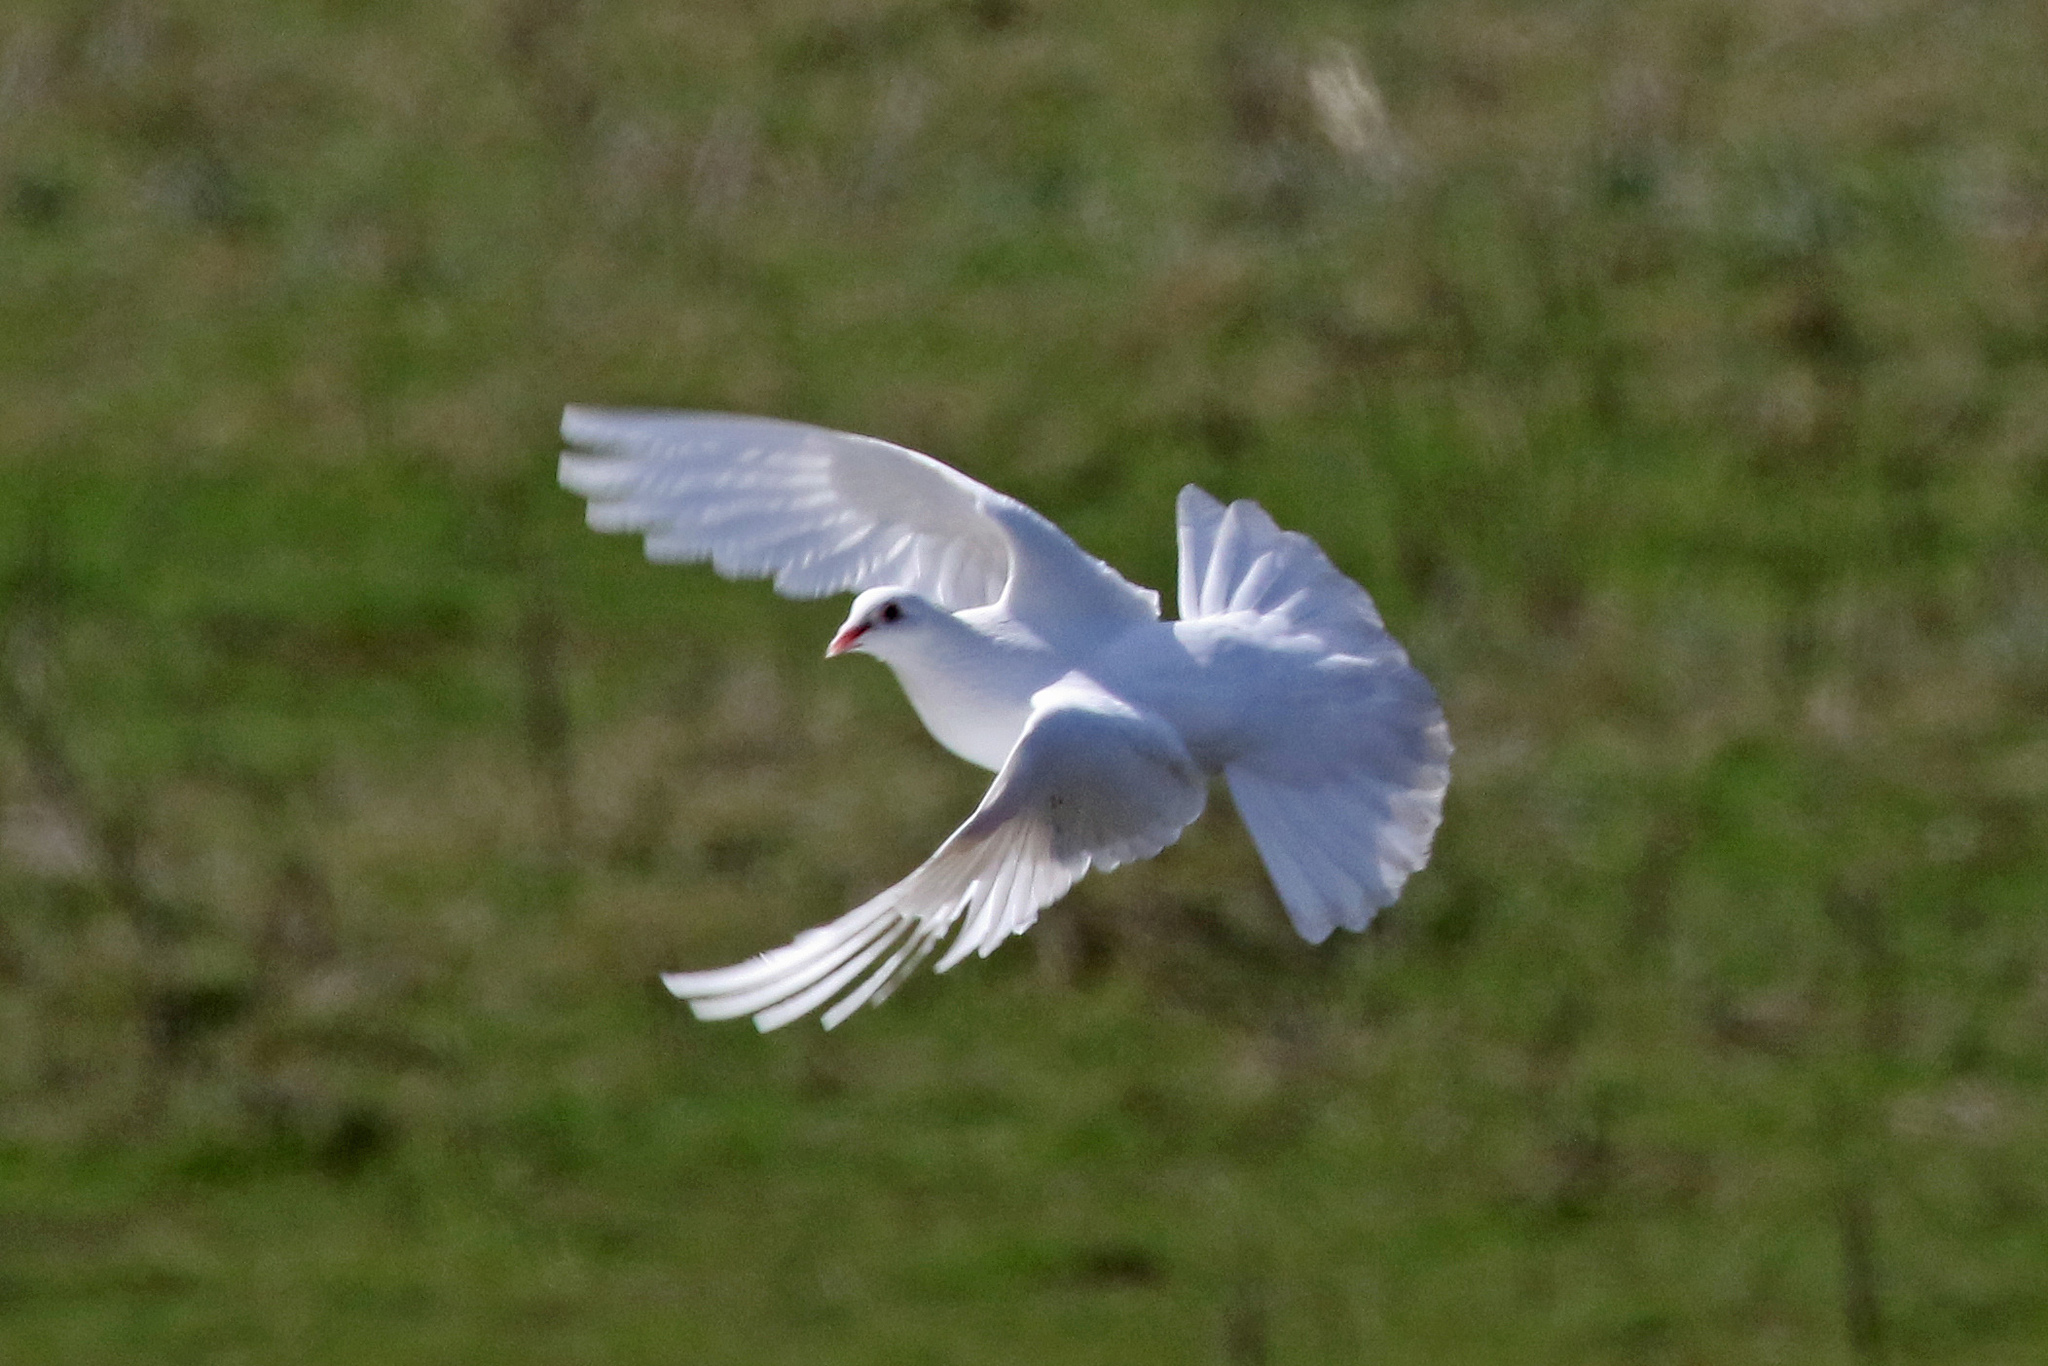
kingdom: Animalia
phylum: Chordata
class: Aves
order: Columbiformes
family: Columbidae
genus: Columba
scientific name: Columba livia
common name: Rock pigeon
